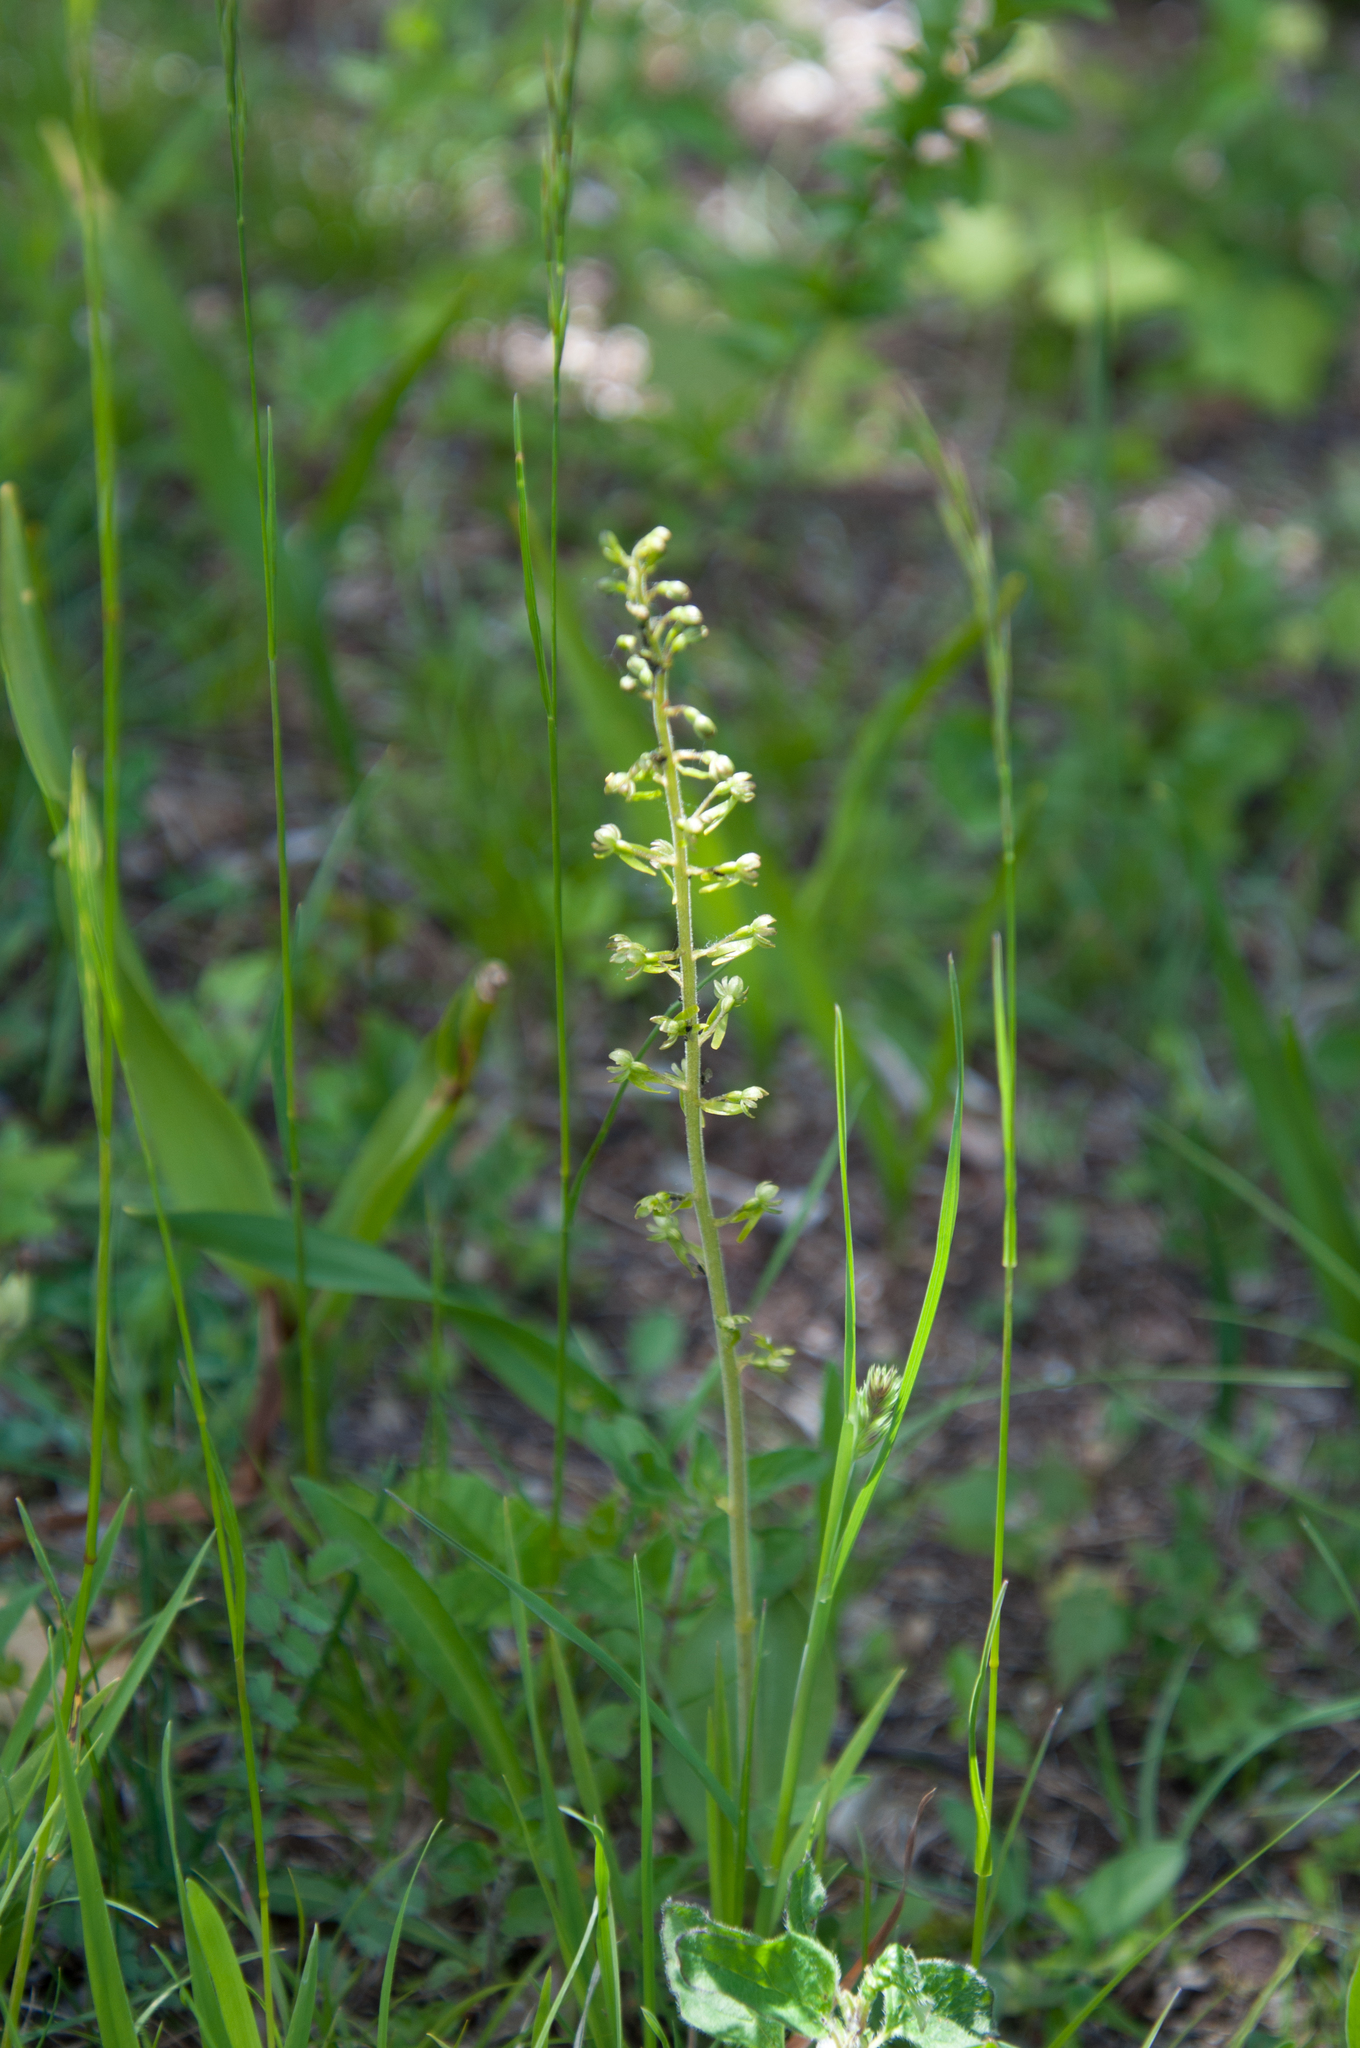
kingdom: Plantae
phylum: Tracheophyta
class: Liliopsida
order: Asparagales
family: Orchidaceae
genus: Neottia
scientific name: Neottia ovata
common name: Common twayblade
